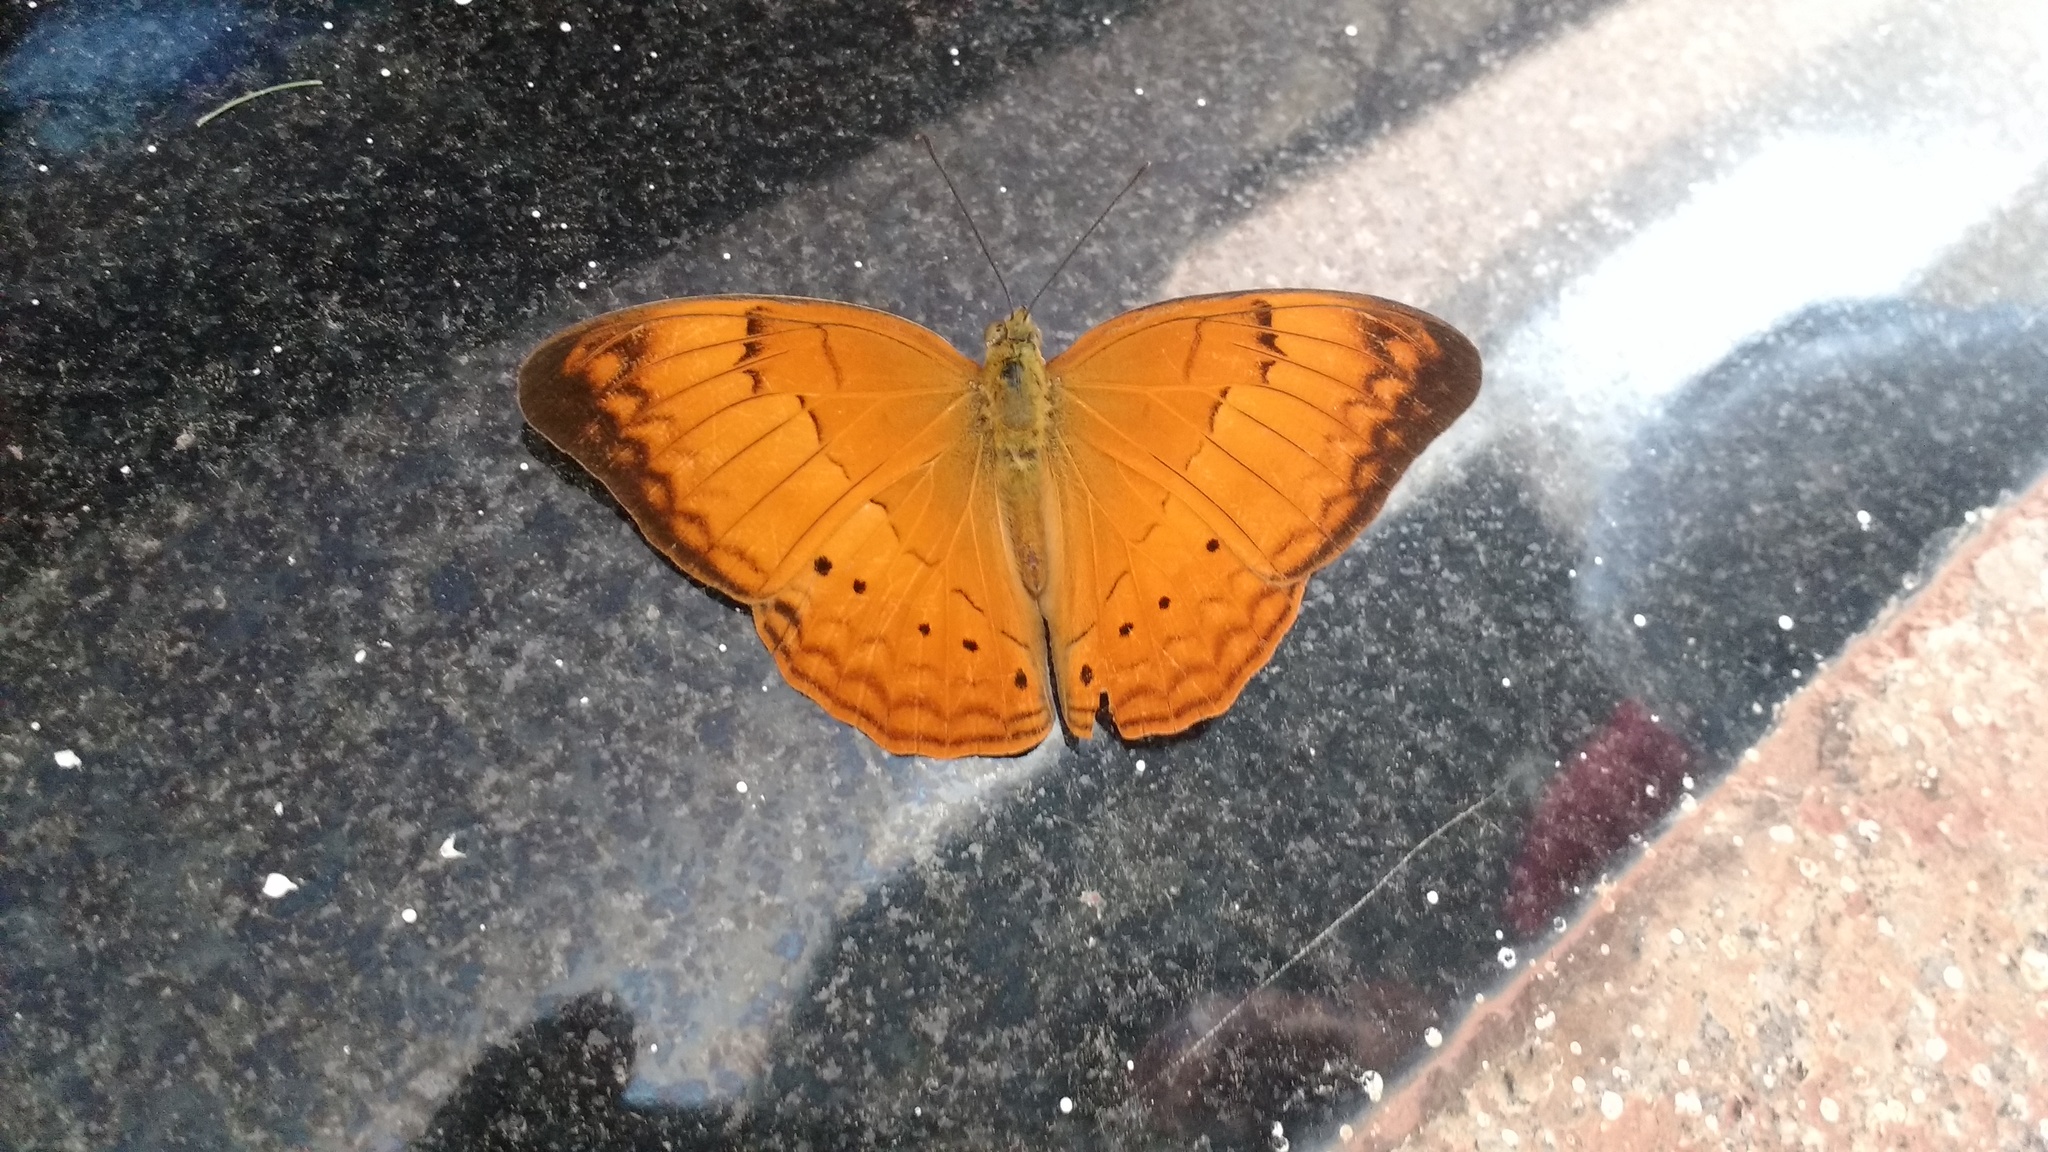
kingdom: Animalia
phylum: Arthropoda
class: Insecta
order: Lepidoptera
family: Nymphalidae
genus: Cirrochroa
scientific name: Cirrochroa thais
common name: Tamil yeoman
